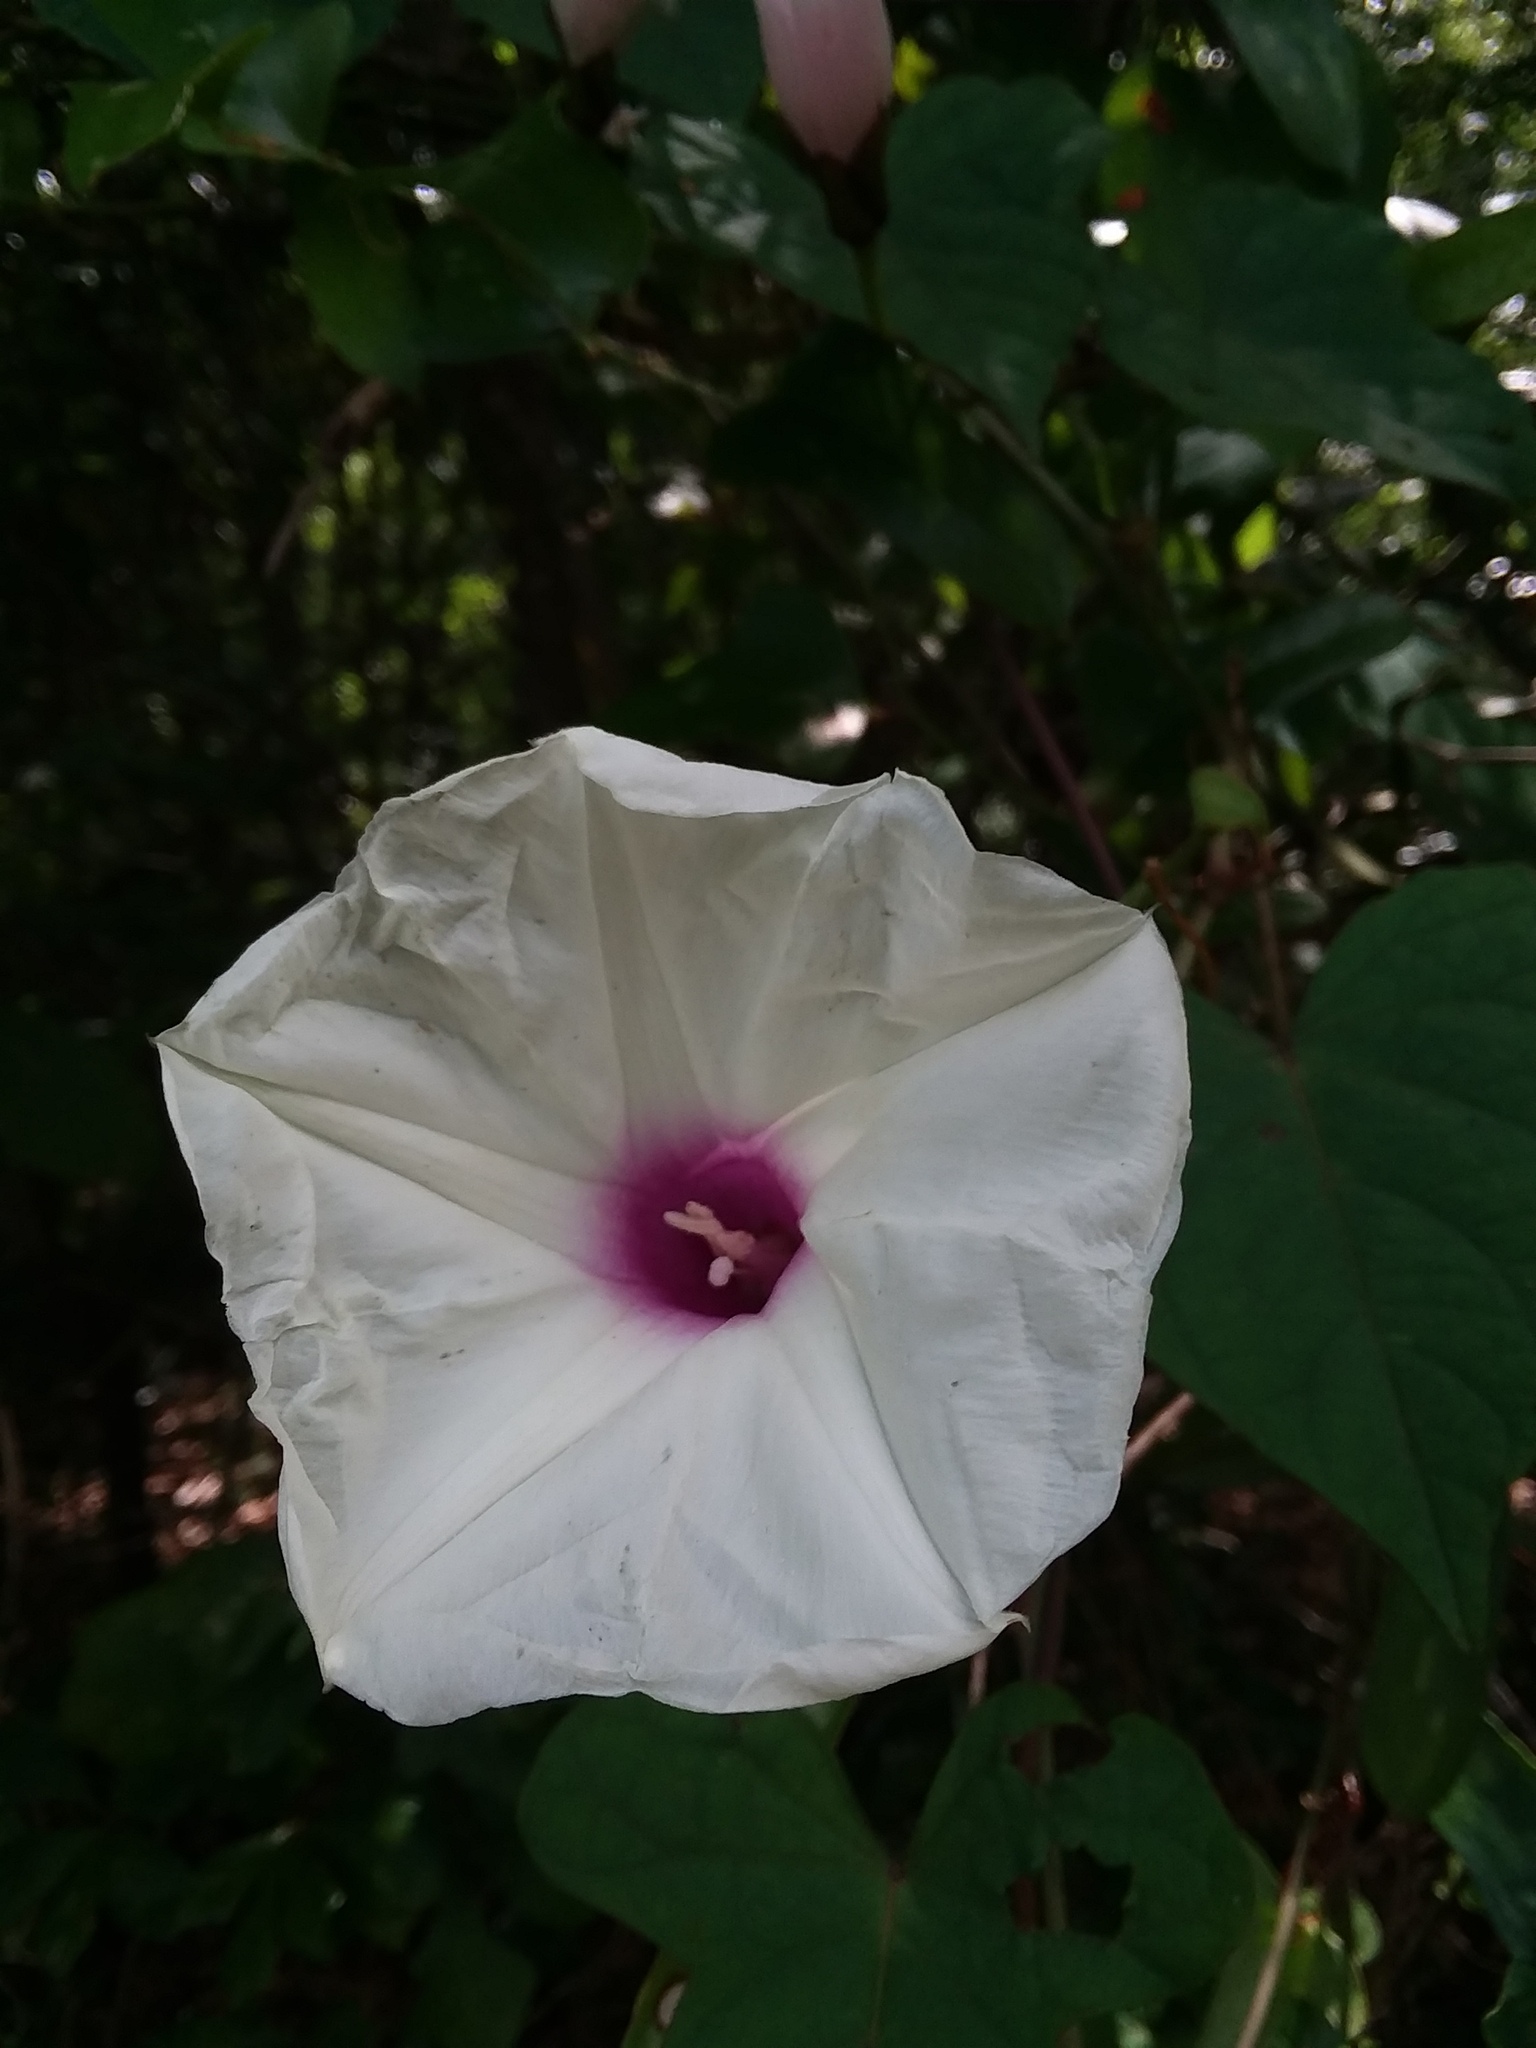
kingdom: Plantae
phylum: Tracheophyta
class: Magnoliopsida
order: Solanales
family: Convolvulaceae
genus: Ipomoea
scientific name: Ipomoea pandurata
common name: Man-of-the-earth
